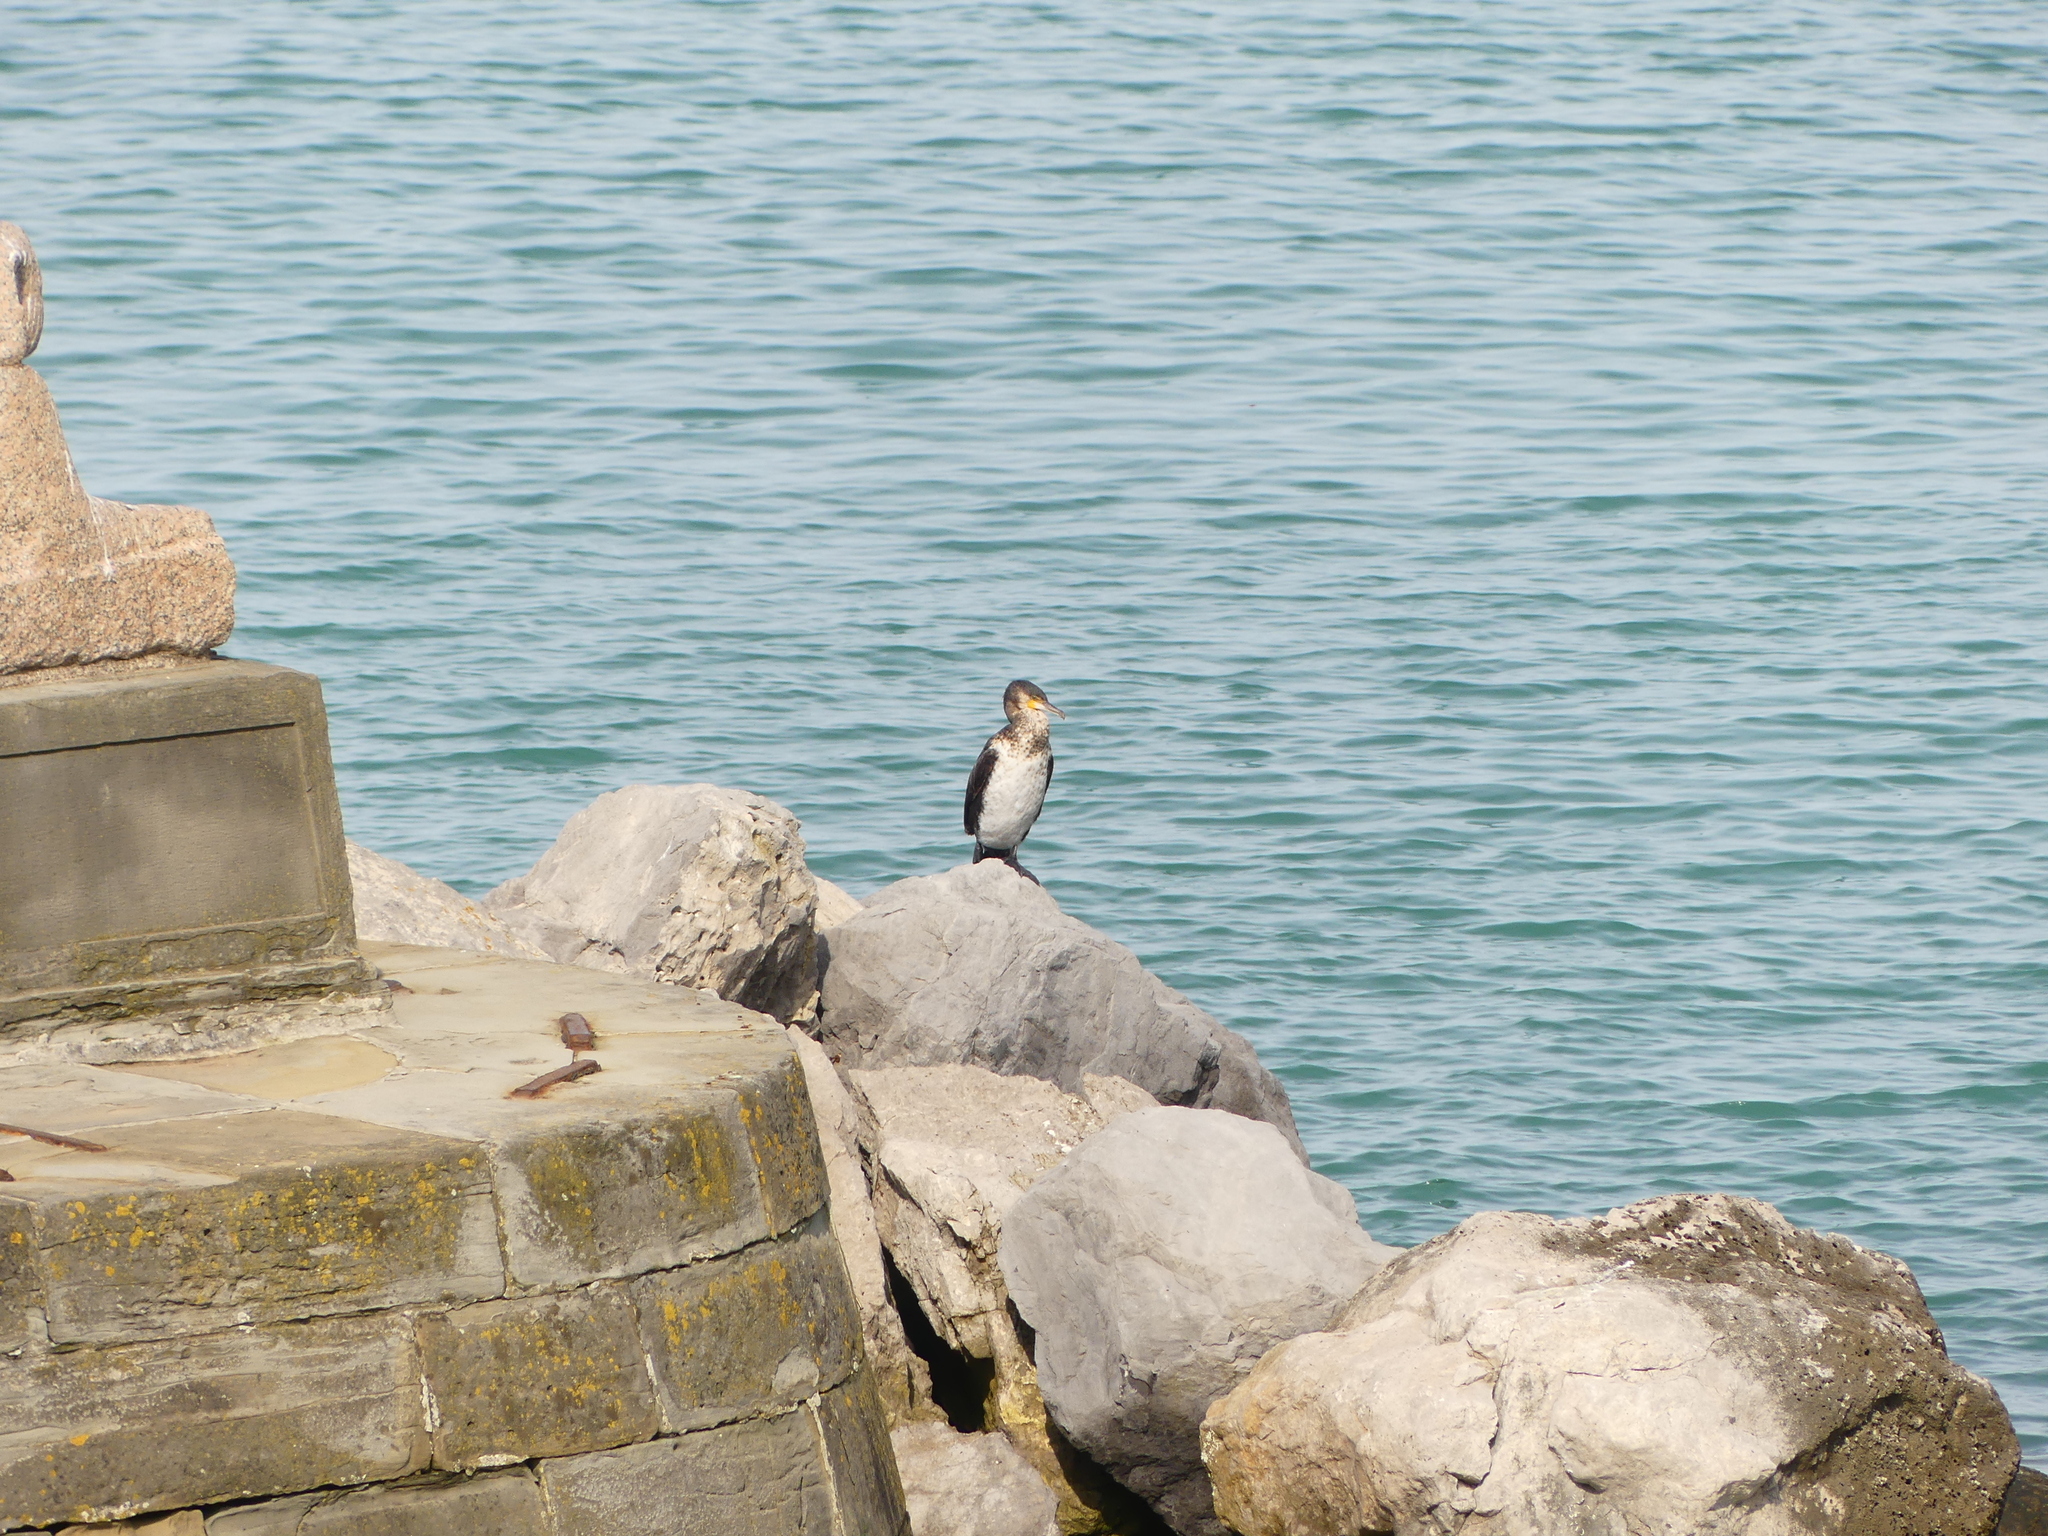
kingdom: Animalia
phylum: Chordata
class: Aves
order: Suliformes
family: Phalacrocoracidae
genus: Phalacrocorax
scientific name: Phalacrocorax aristotelis
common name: European shag
